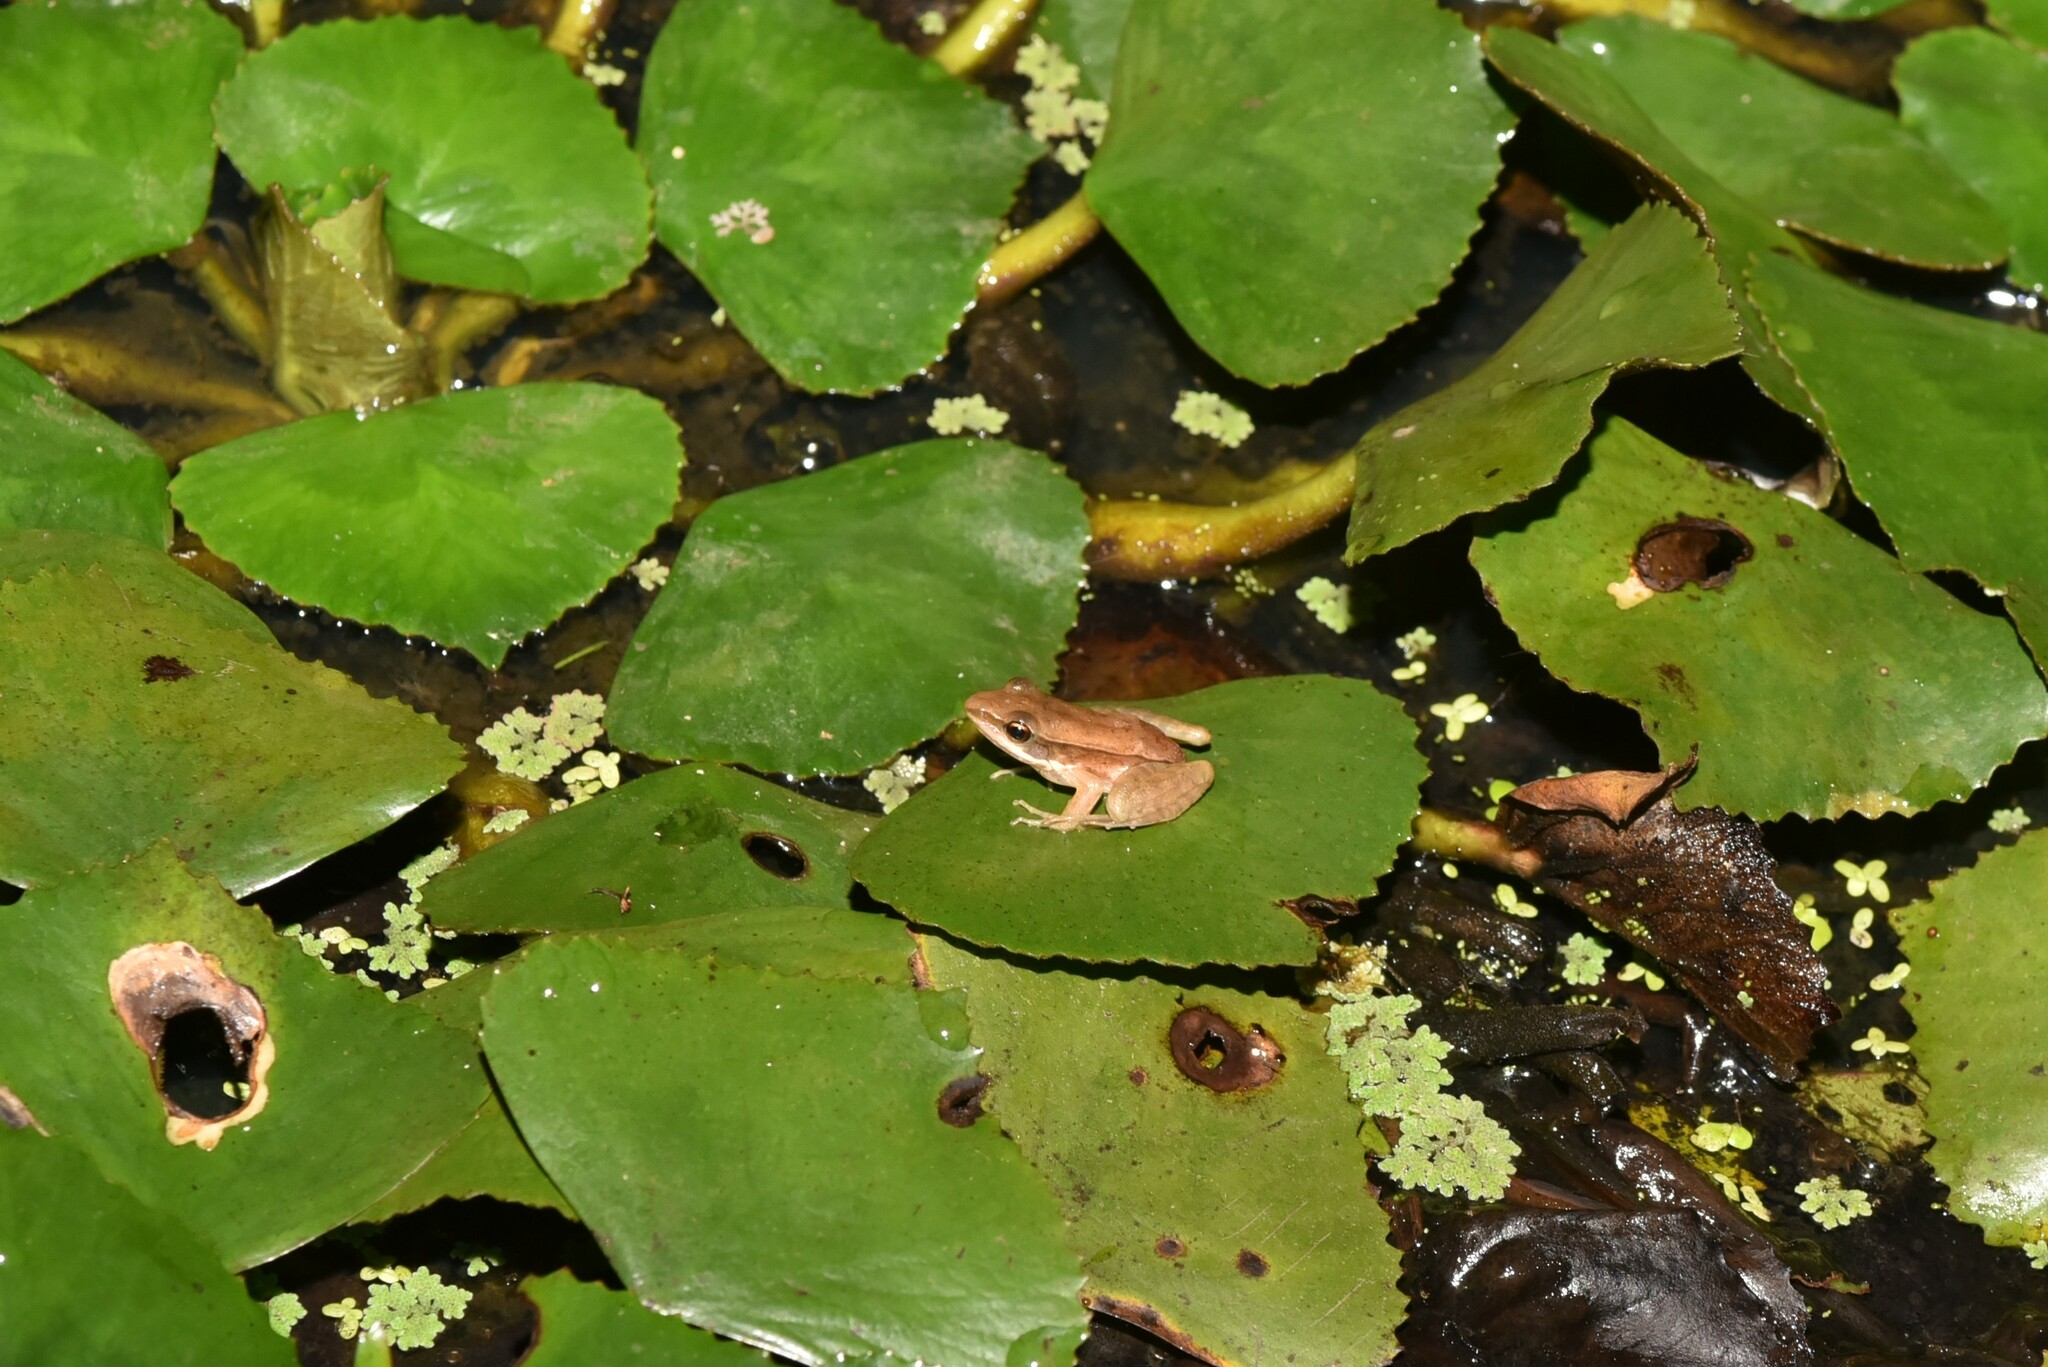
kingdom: Animalia
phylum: Chordata
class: Amphibia
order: Anura
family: Ranidae
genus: Sylvirana
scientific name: Sylvirana guentheri
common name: Guenther's amoy frog
